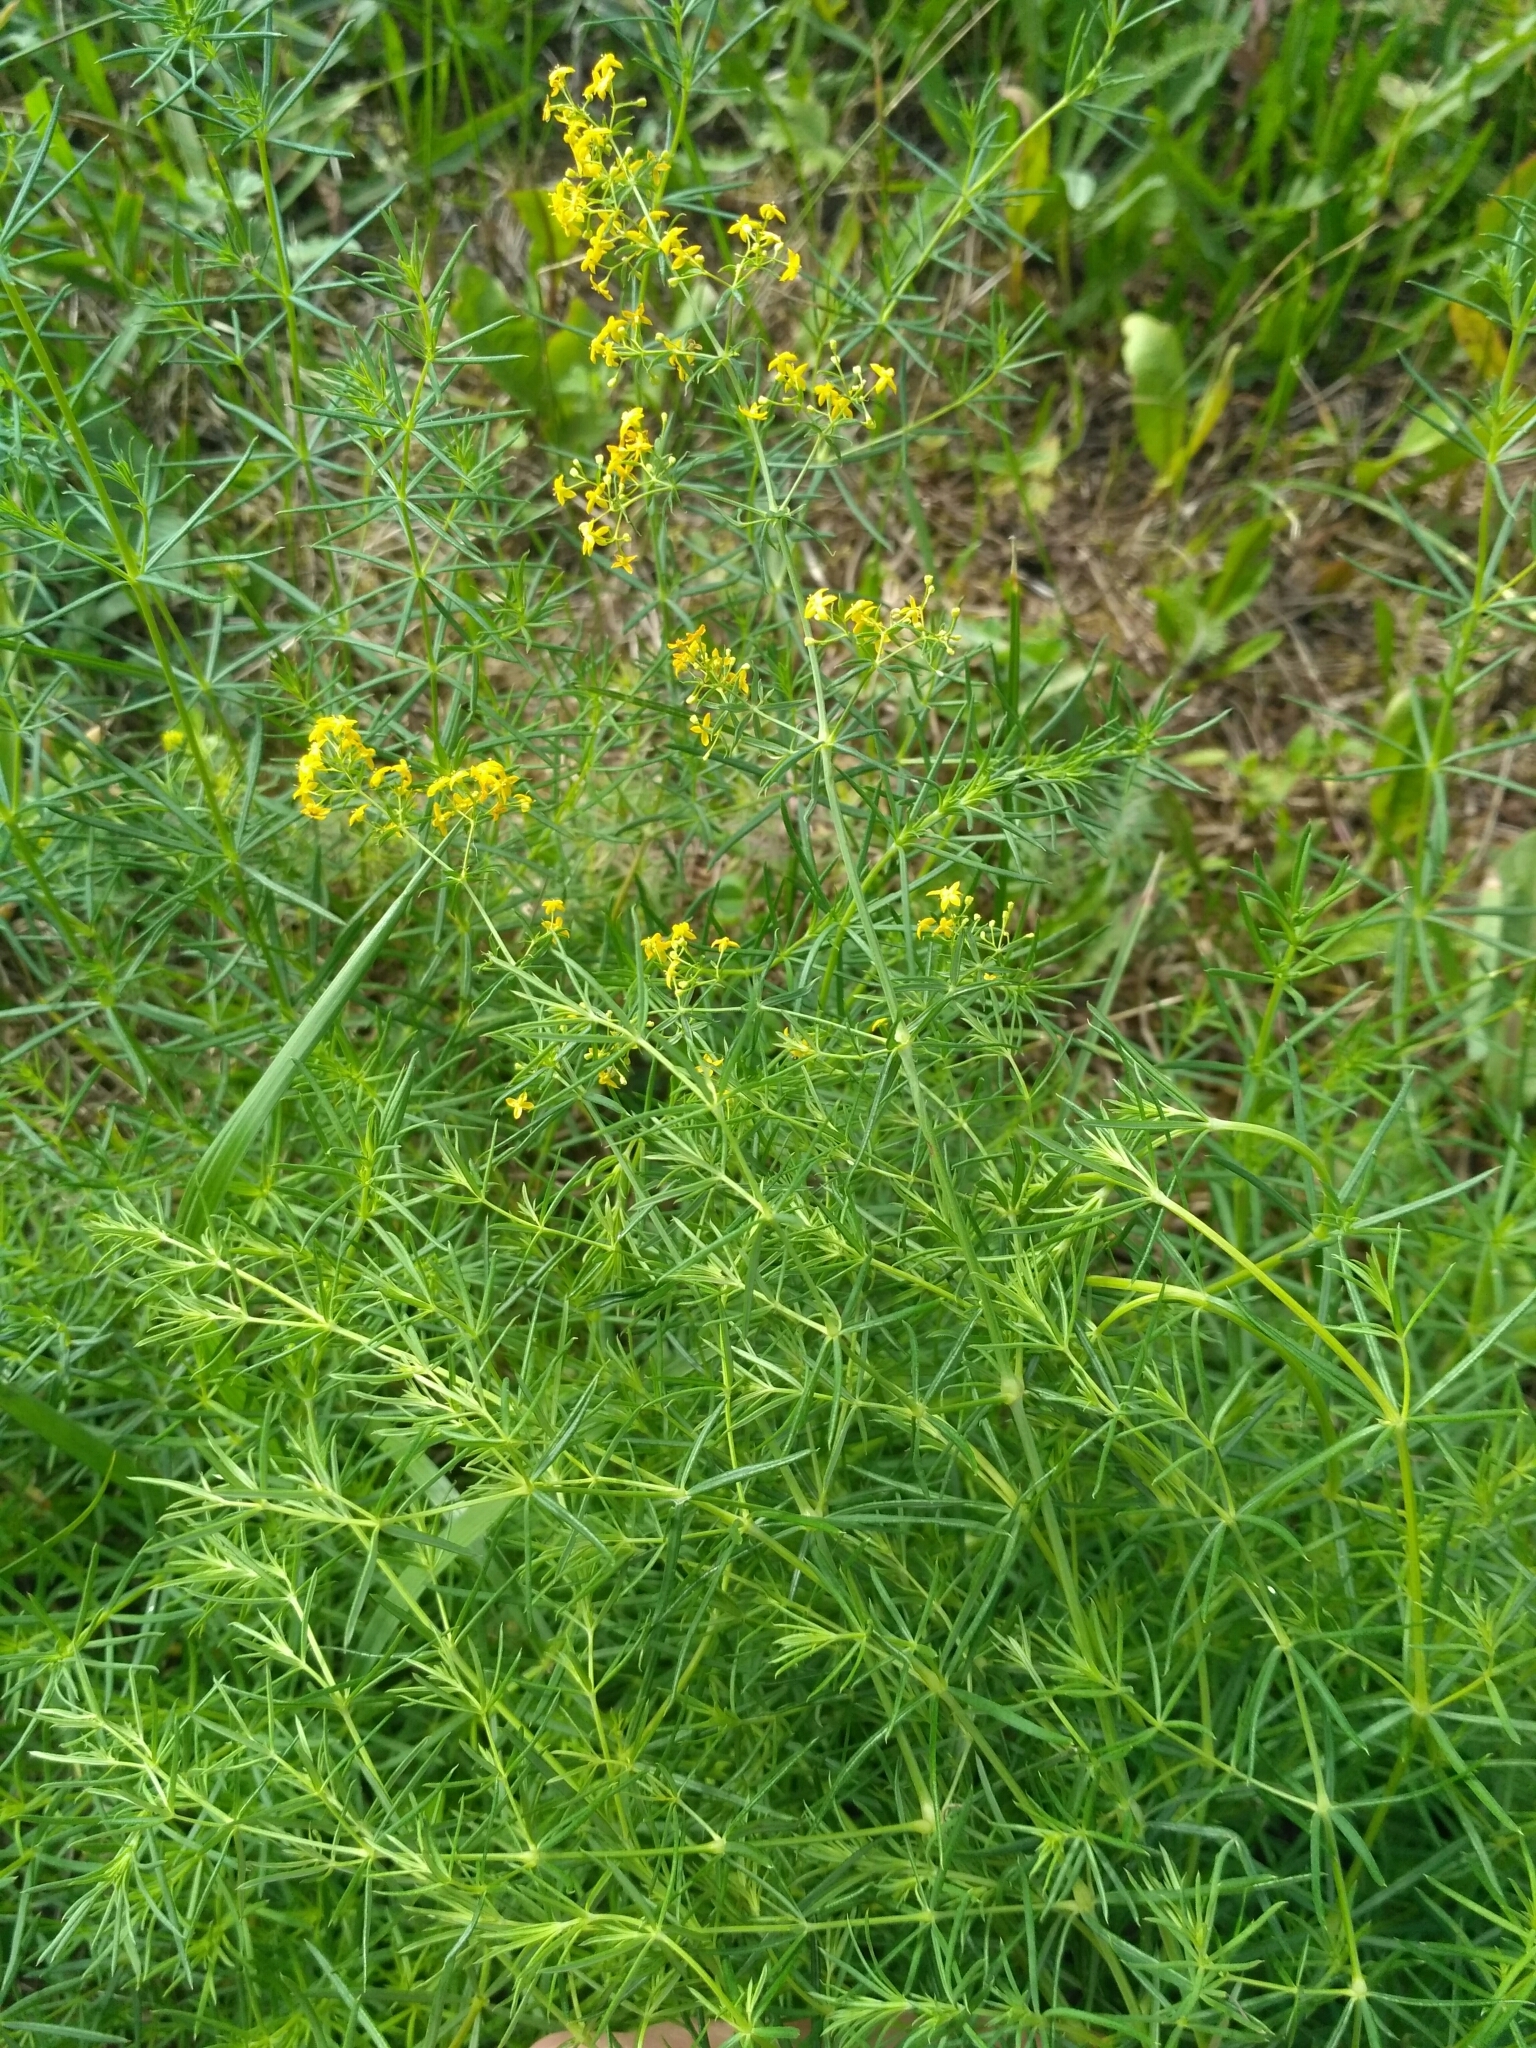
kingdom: Plantae
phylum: Tracheophyta
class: Magnoliopsida
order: Gentianales
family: Rubiaceae
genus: Galium
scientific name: Galium verum
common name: Lady's bedstraw
